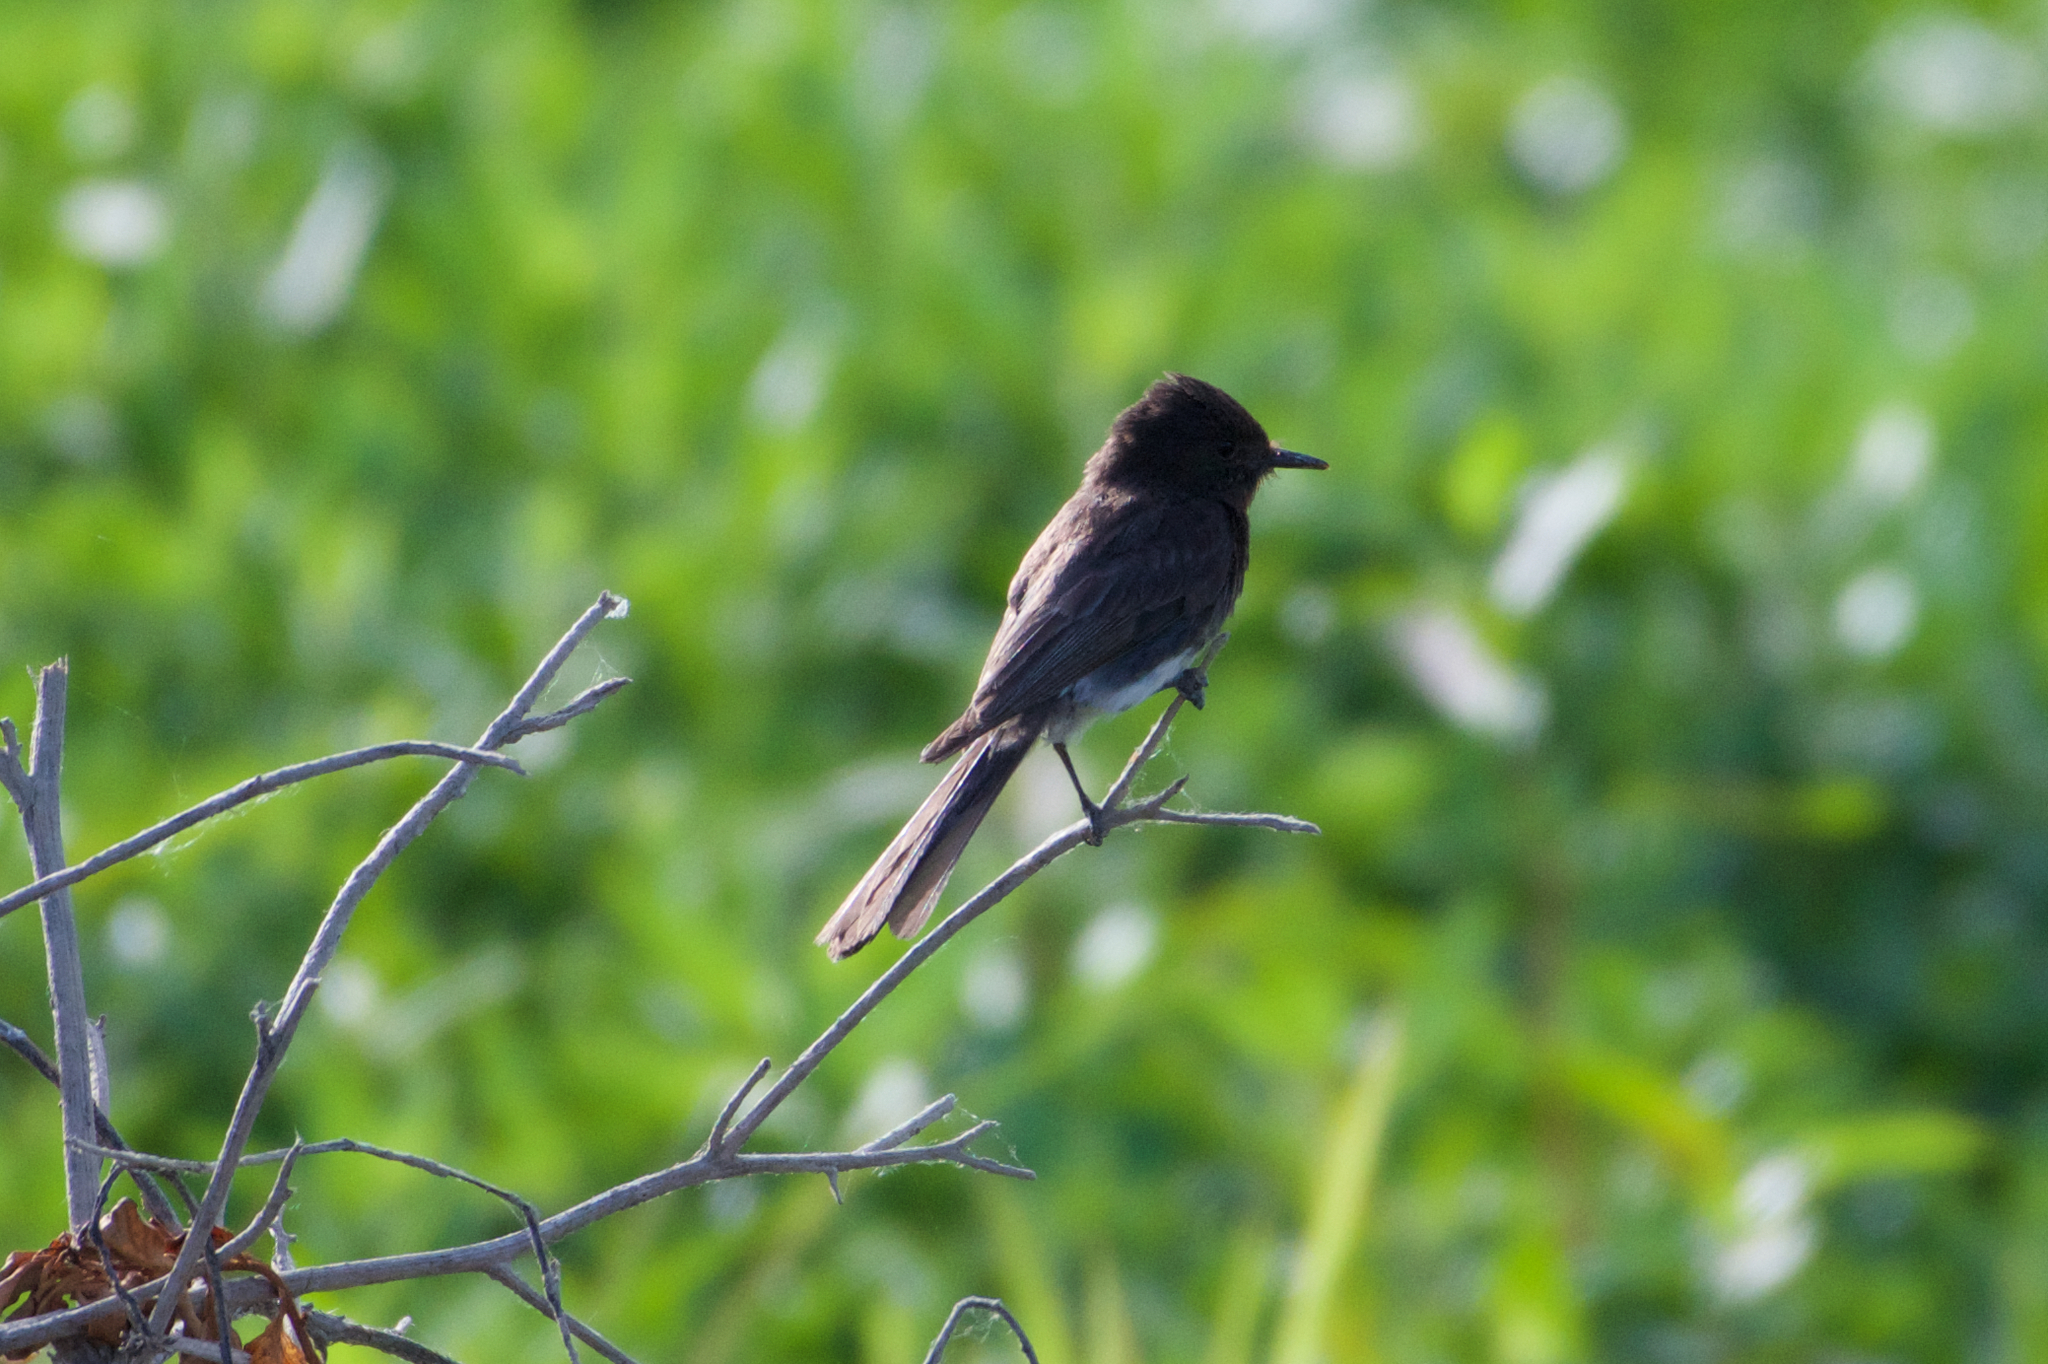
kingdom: Animalia
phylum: Chordata
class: Aves
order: Passeriformes
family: Tyrannidae
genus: Sayornis
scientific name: Sayornis nigricans
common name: Black phoebe
